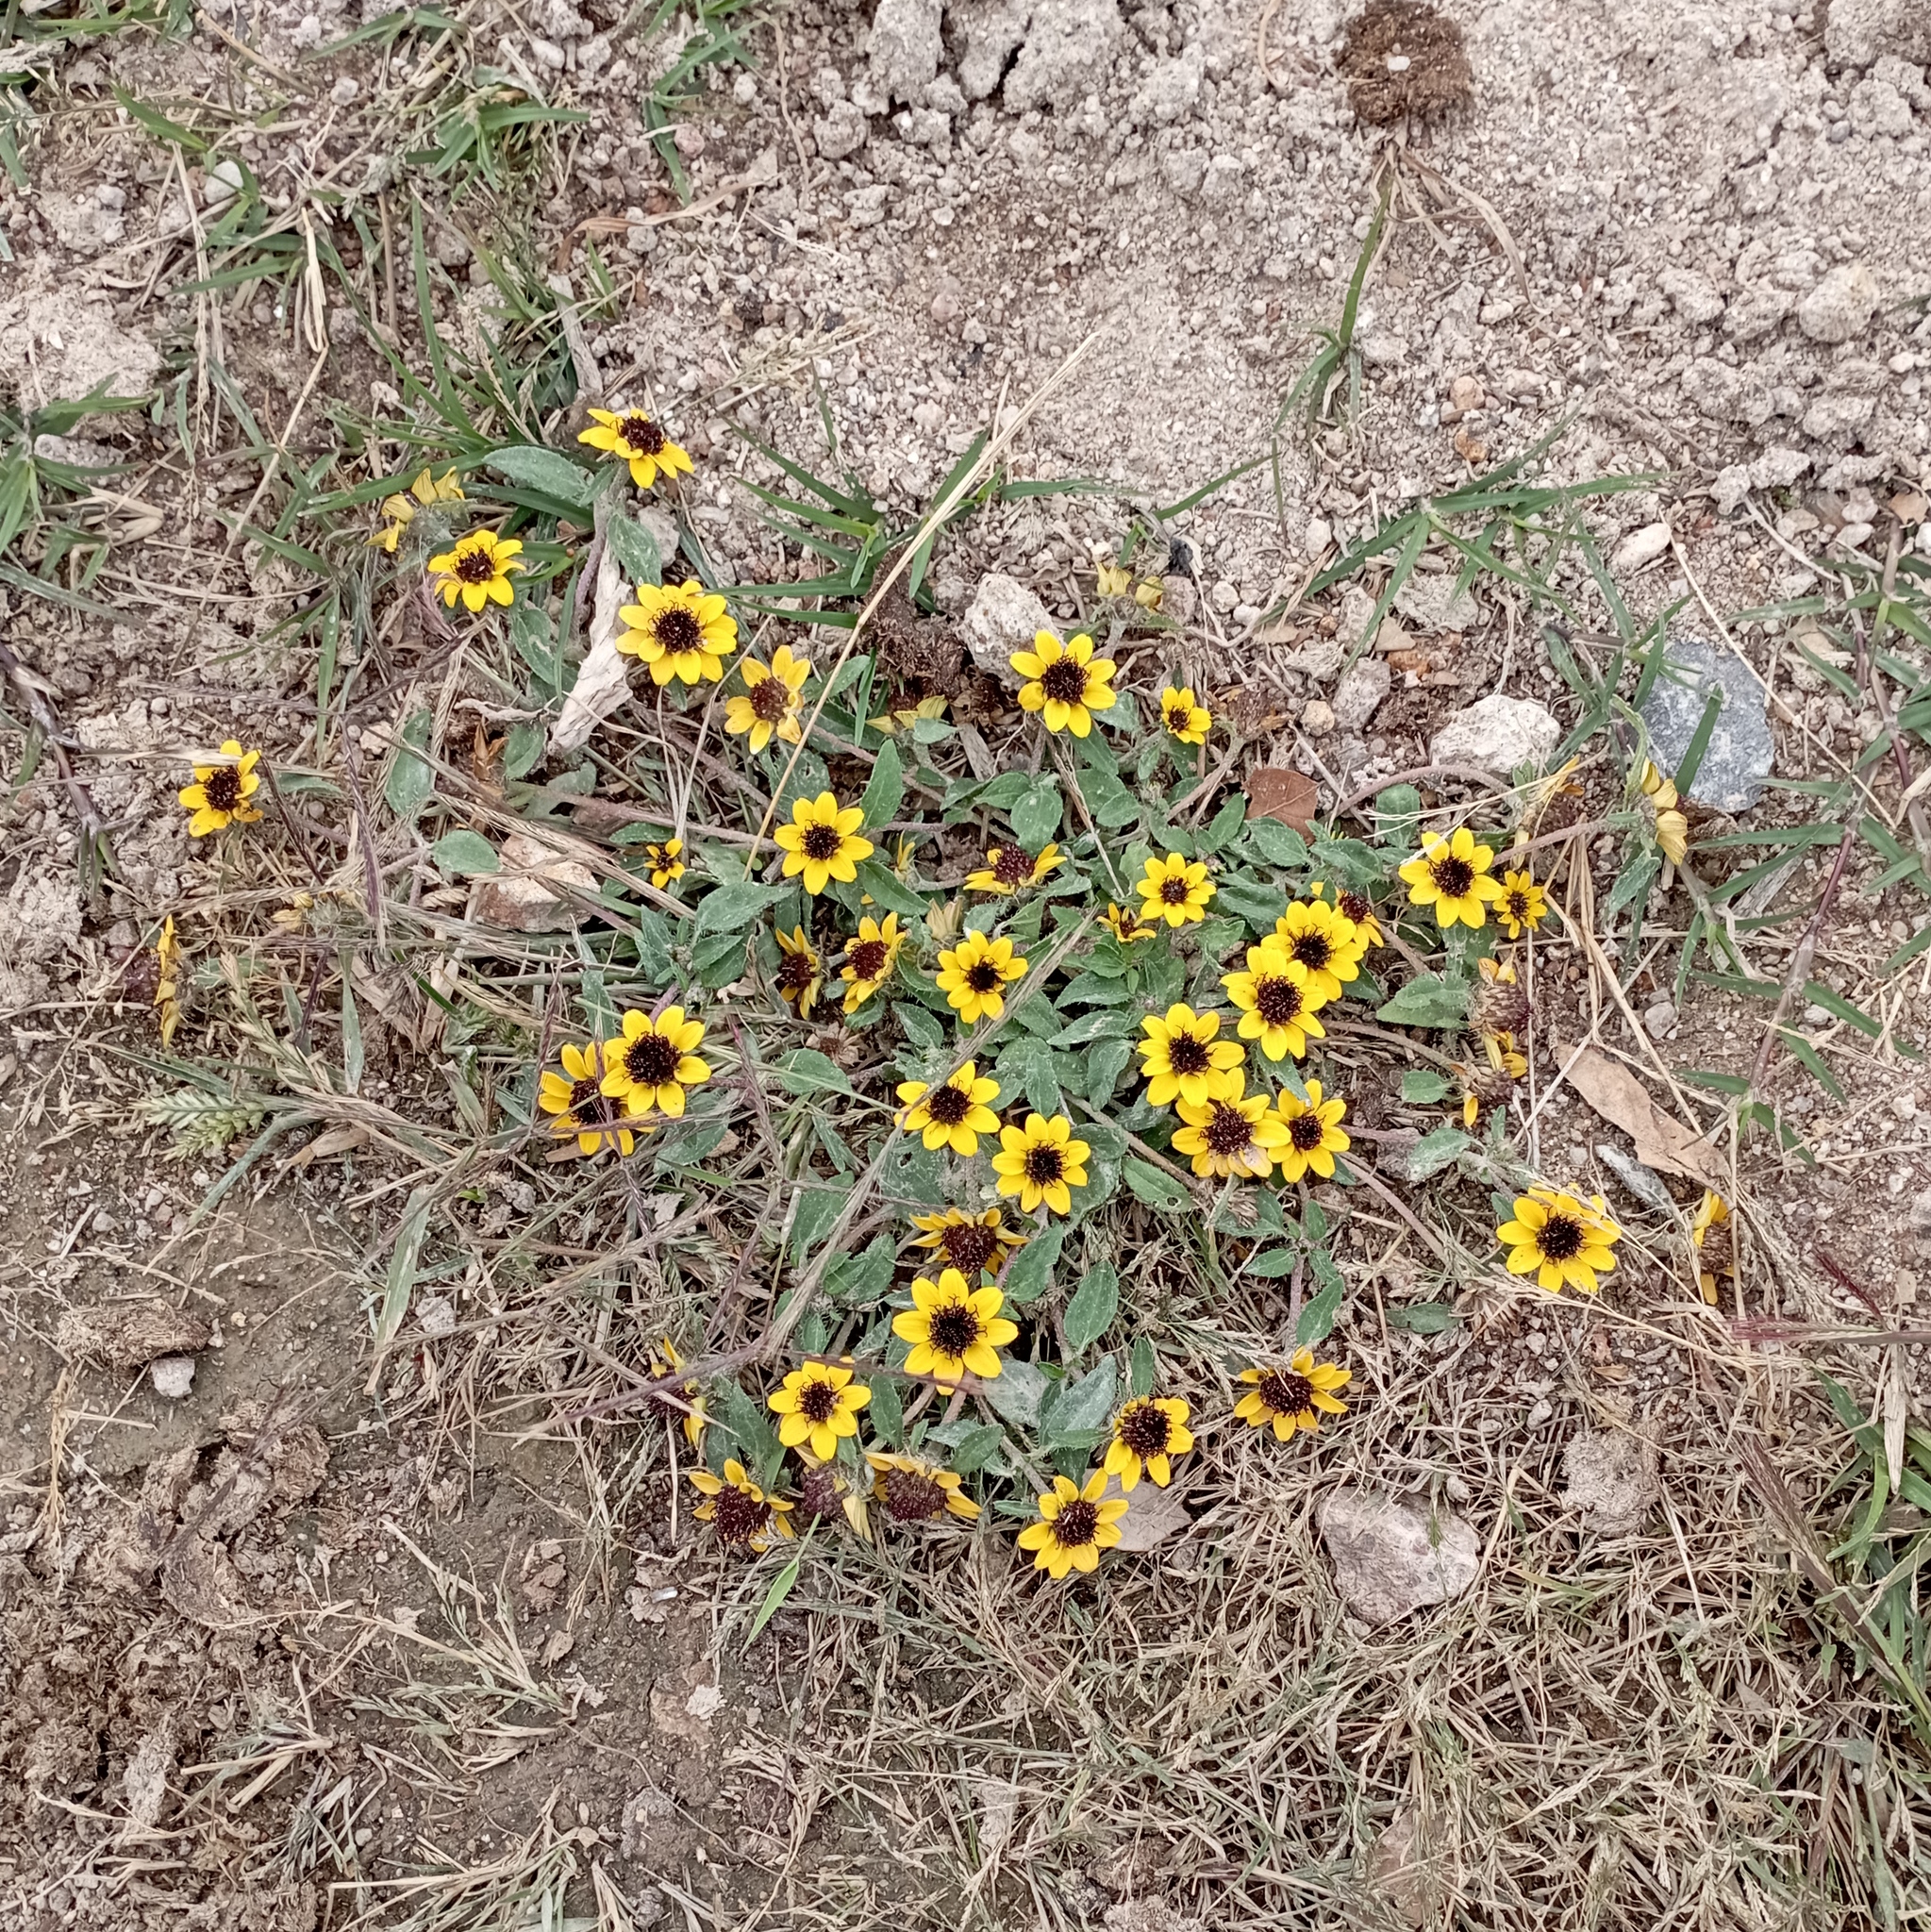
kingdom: Plantae
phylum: Tracheophyta
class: Magnoliopsida
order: Asterales
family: Asteraceae
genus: Sanvitalia
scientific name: Sanvitalia procumbens
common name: Mexican creeping zinnia
